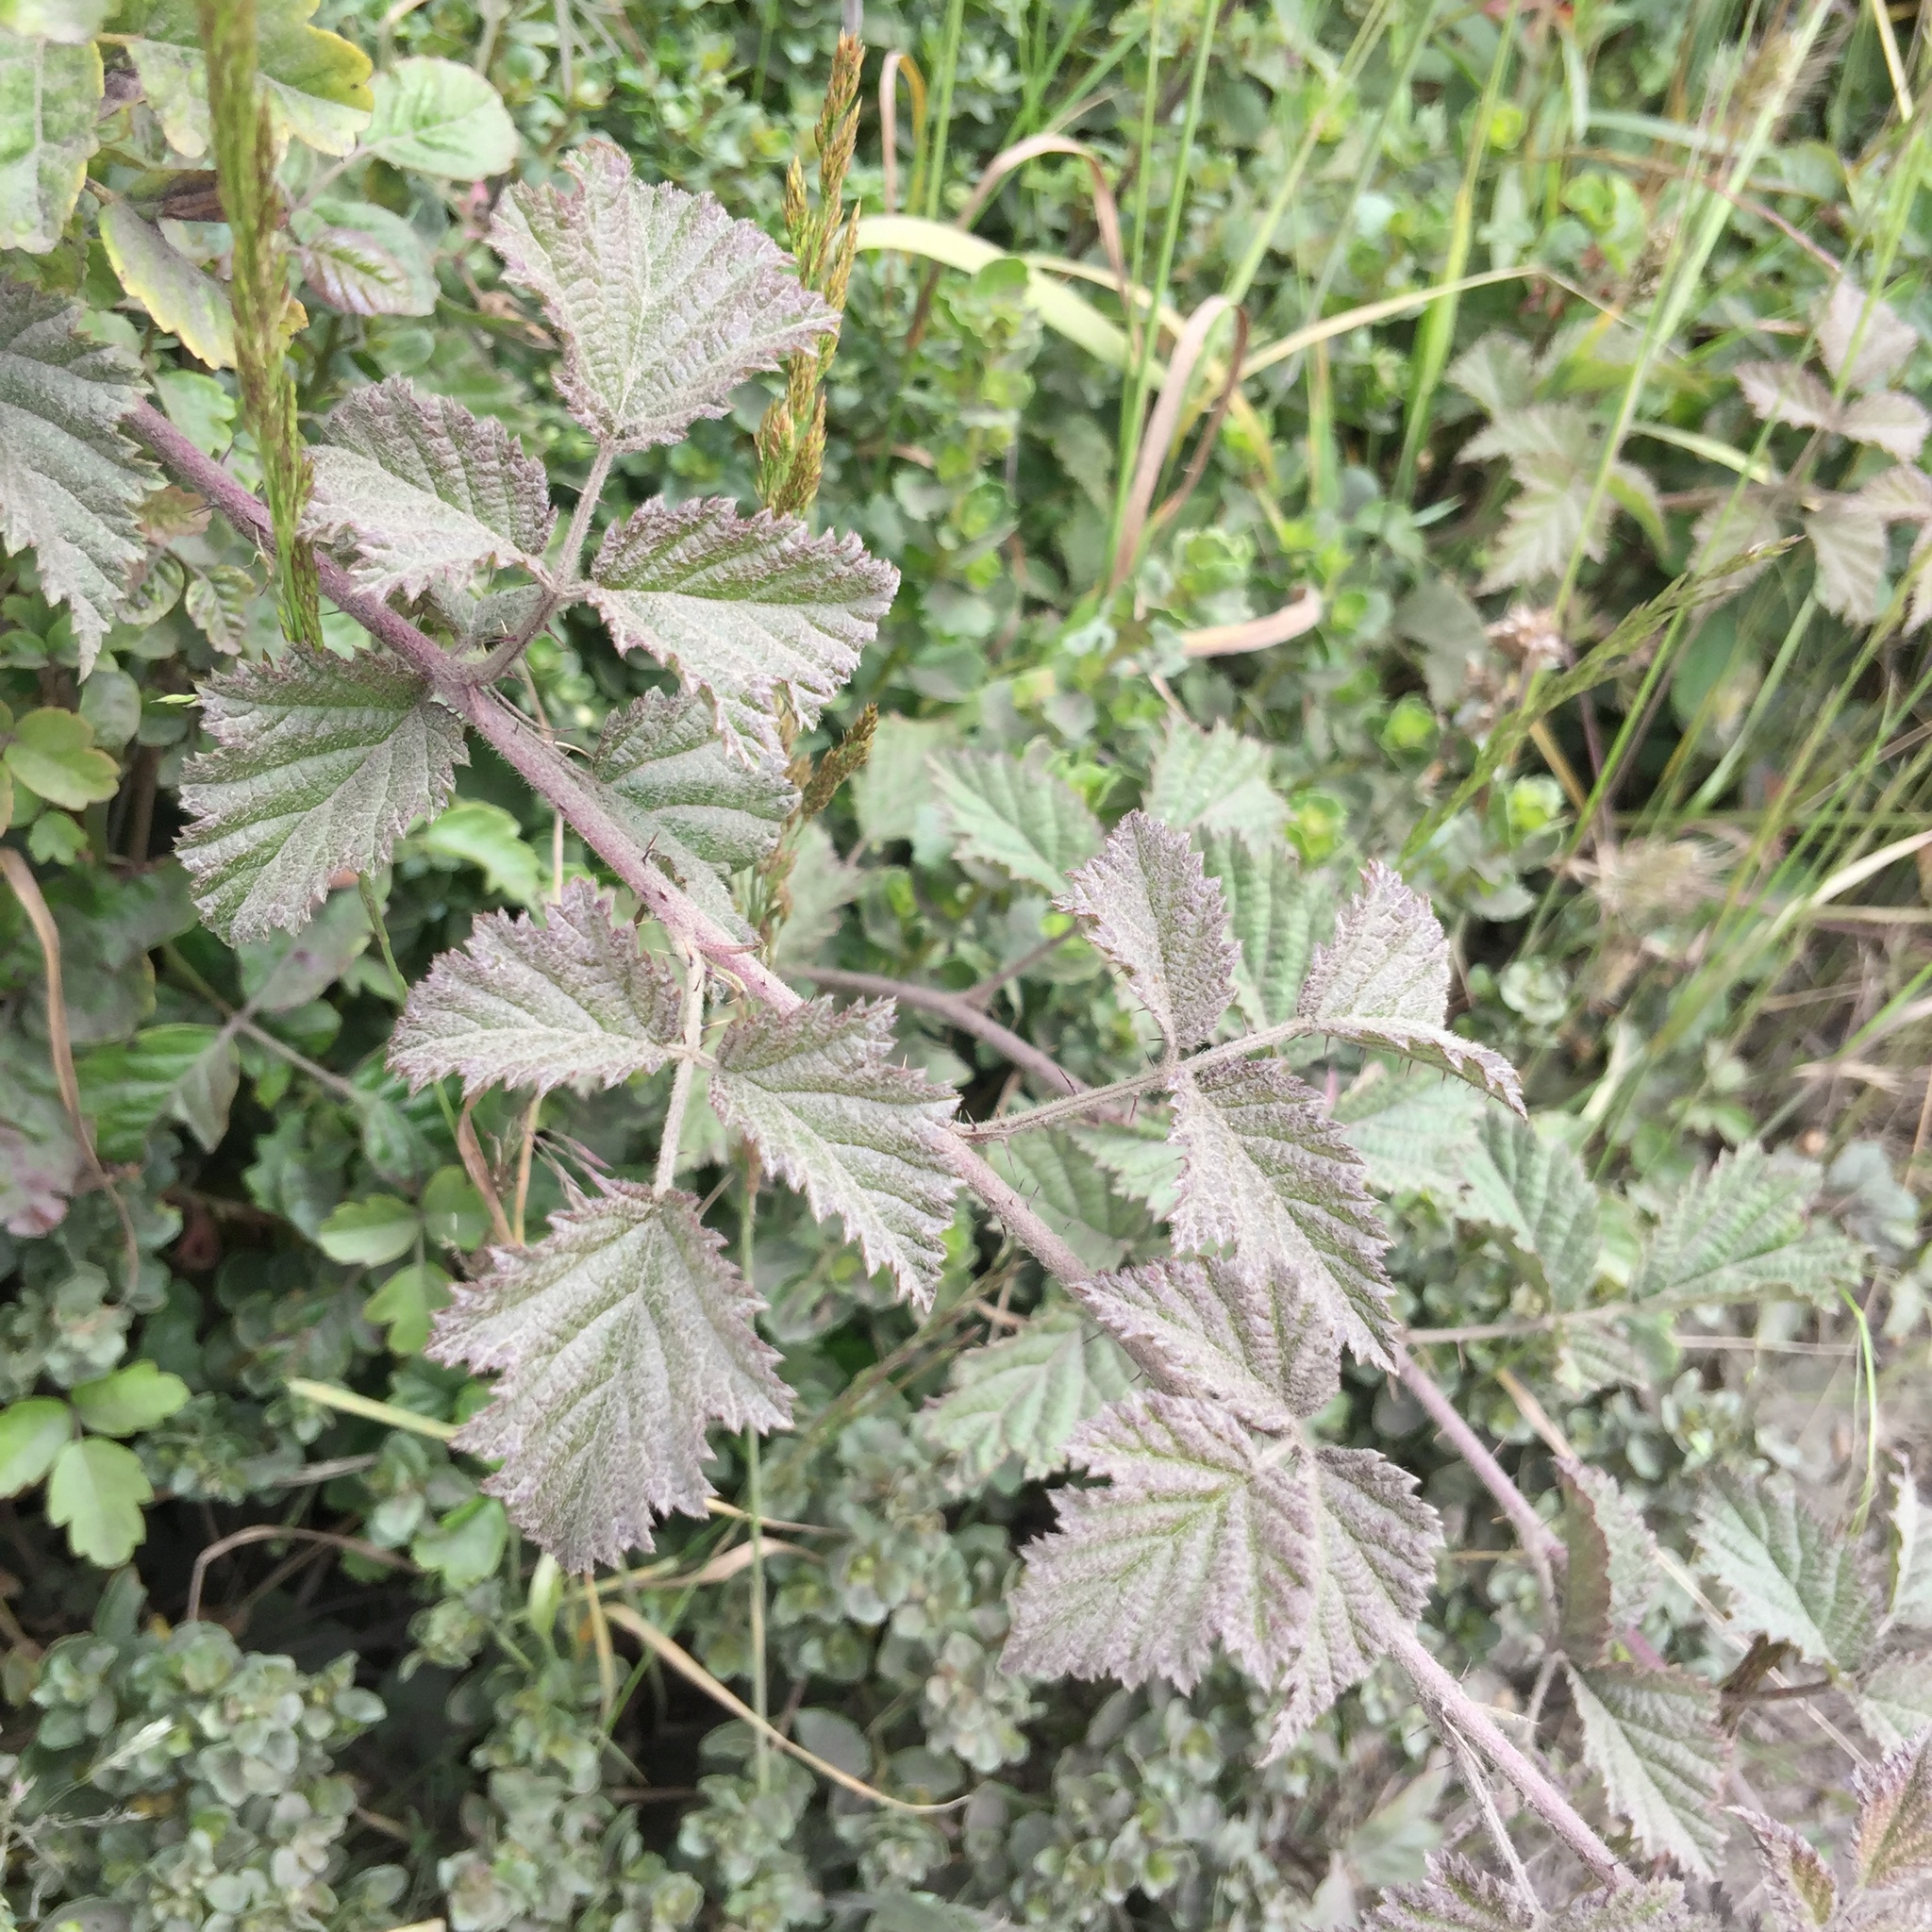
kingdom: Plantae
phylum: Tracheophyta
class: Magnoliopsida
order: Rosales
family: Rosaceae
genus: Rubus
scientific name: Rubus ursinus
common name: Pacific blackberry
